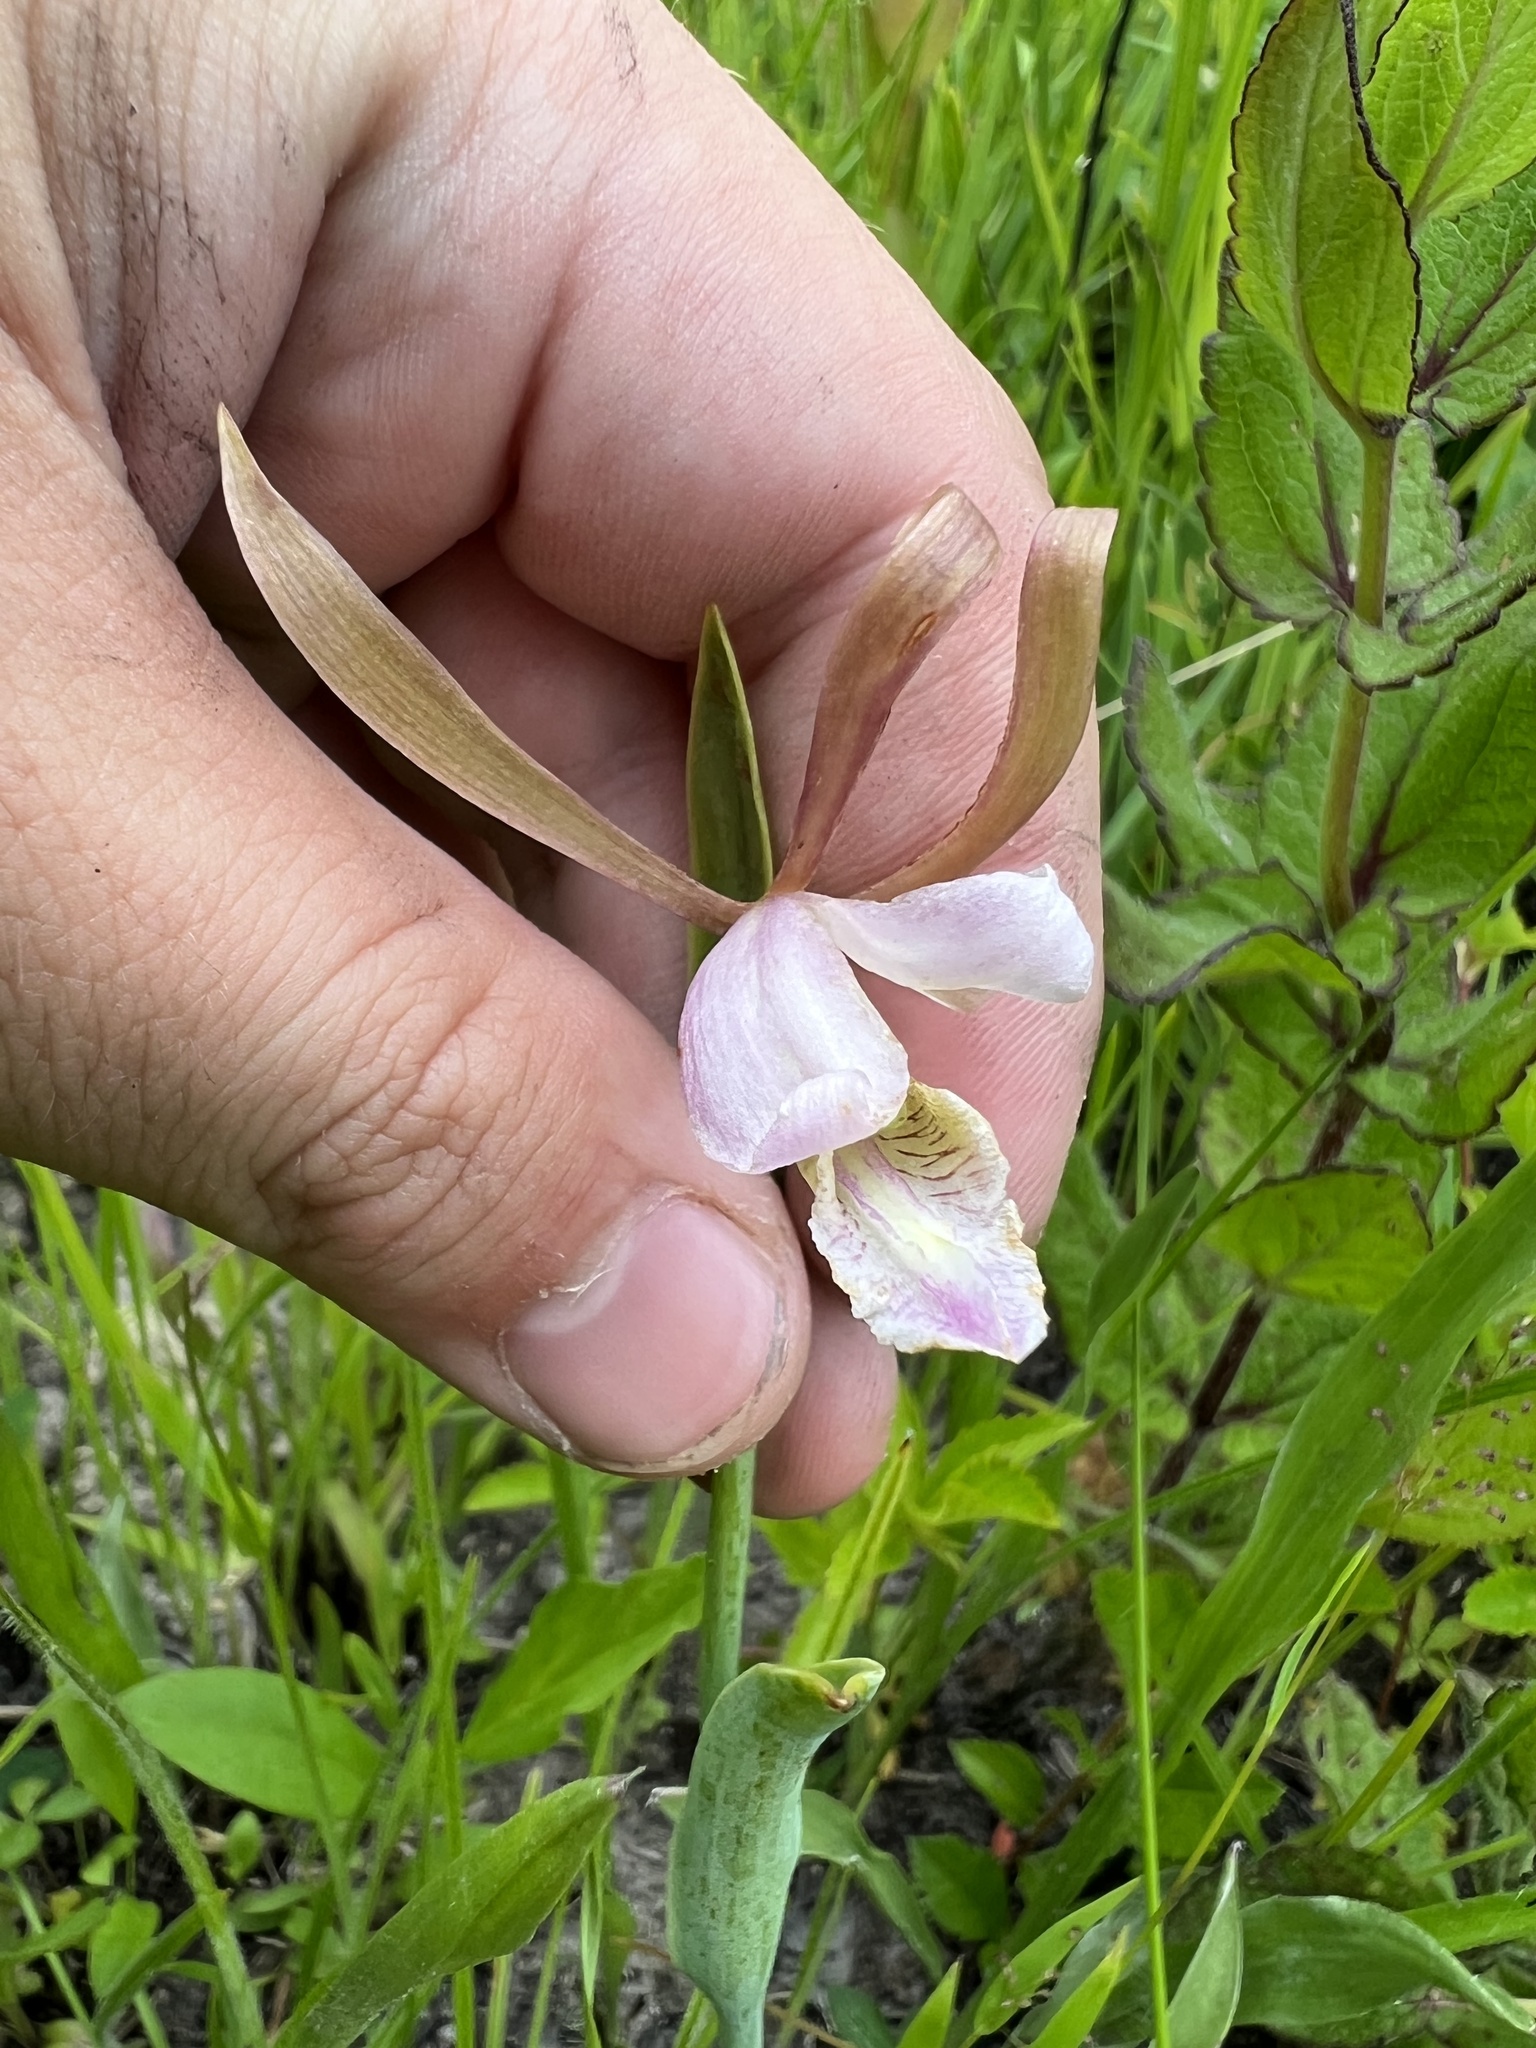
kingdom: Plantae
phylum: Tracheophyta
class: Liliopsida
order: Asparagales
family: Orchidaceae
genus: Cleistesiopsis
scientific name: Cleistesiopsis bifaria
